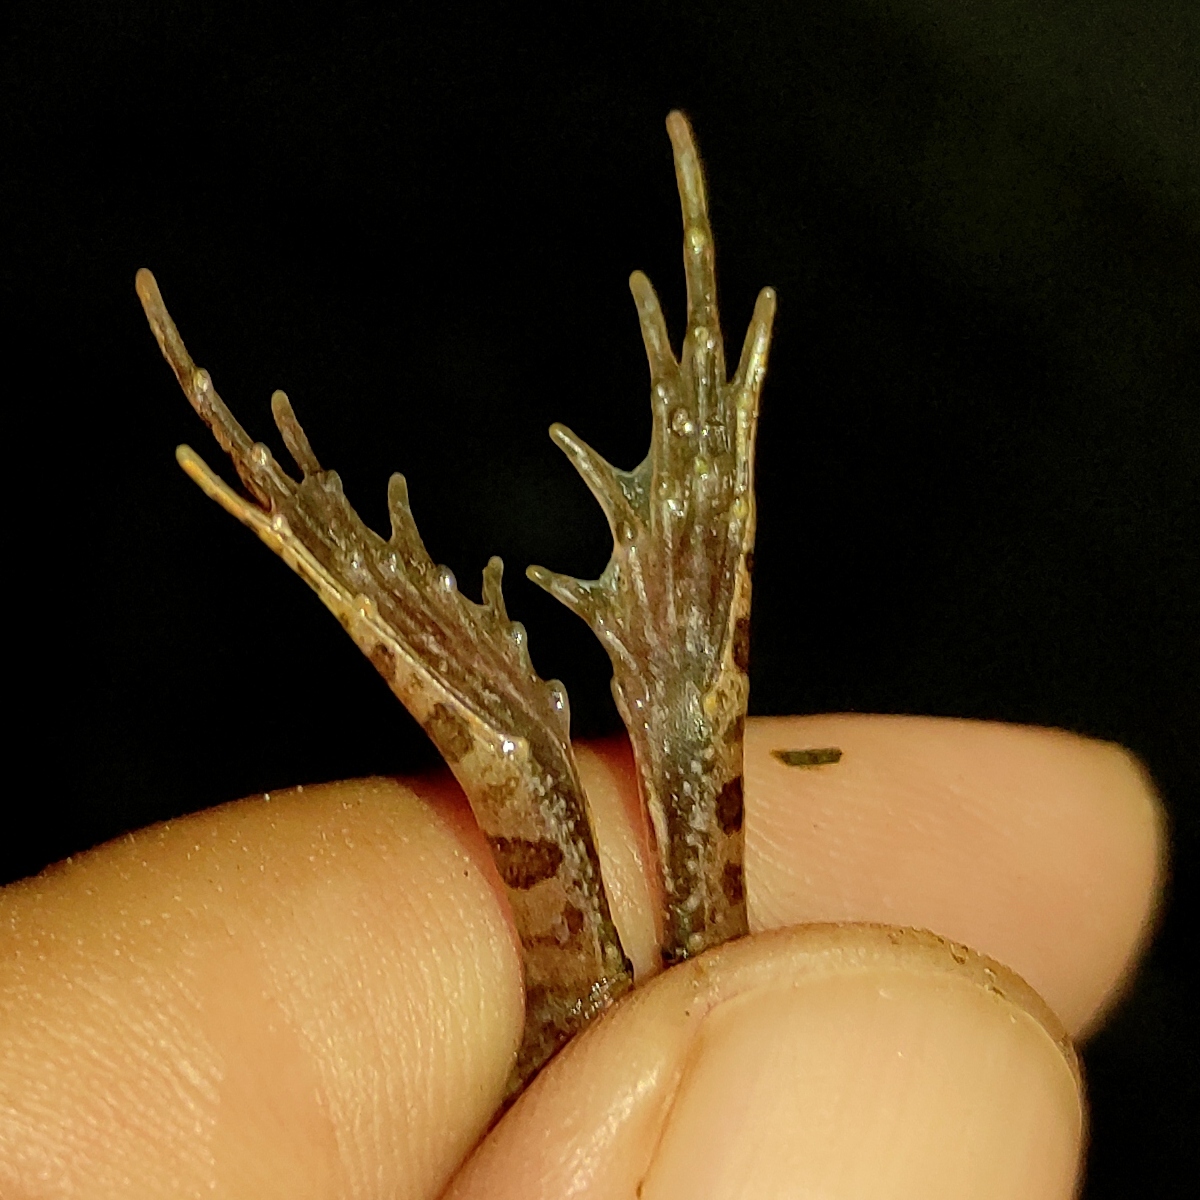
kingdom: Animalia
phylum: Chordata
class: Amphibia
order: Anura
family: Dicroglossidae
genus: Fejervarya
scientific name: Fejervarya limnocharis
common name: Asian grass frog/common pond frog/field frog/grass frog/indian rice frog
